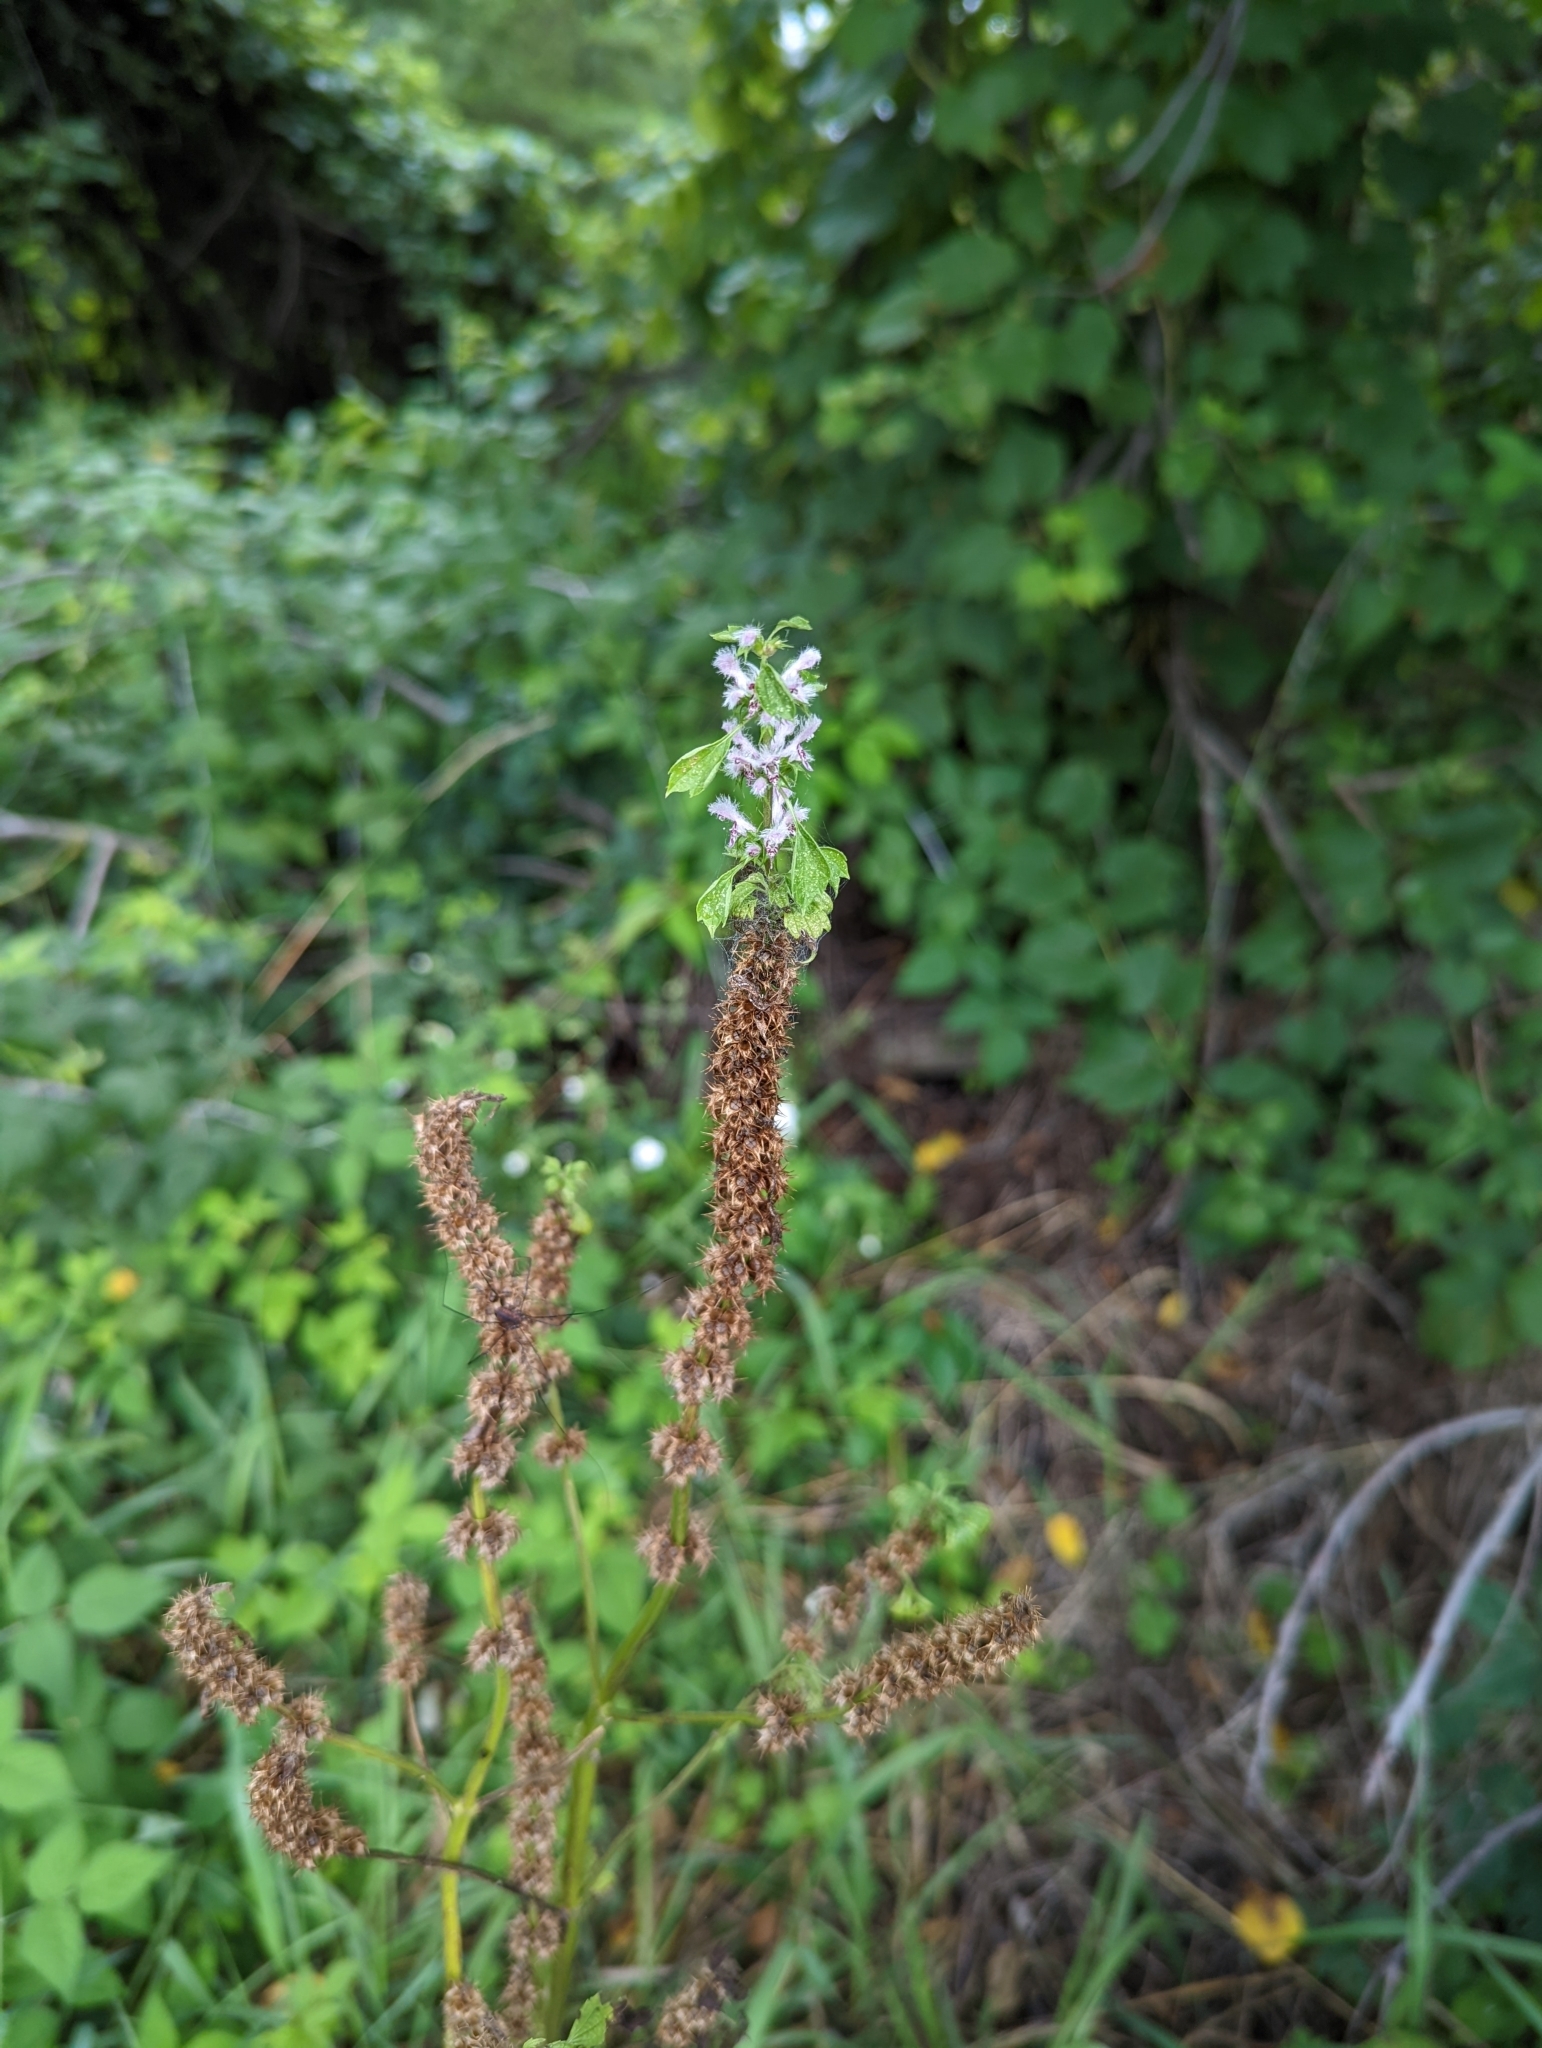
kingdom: Plantae
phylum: Tracheophyta
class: Magnoliopsida
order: Lamiales
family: Lamiaceae
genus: Leonurus
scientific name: Leonurus cardiaca
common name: Motherwort
